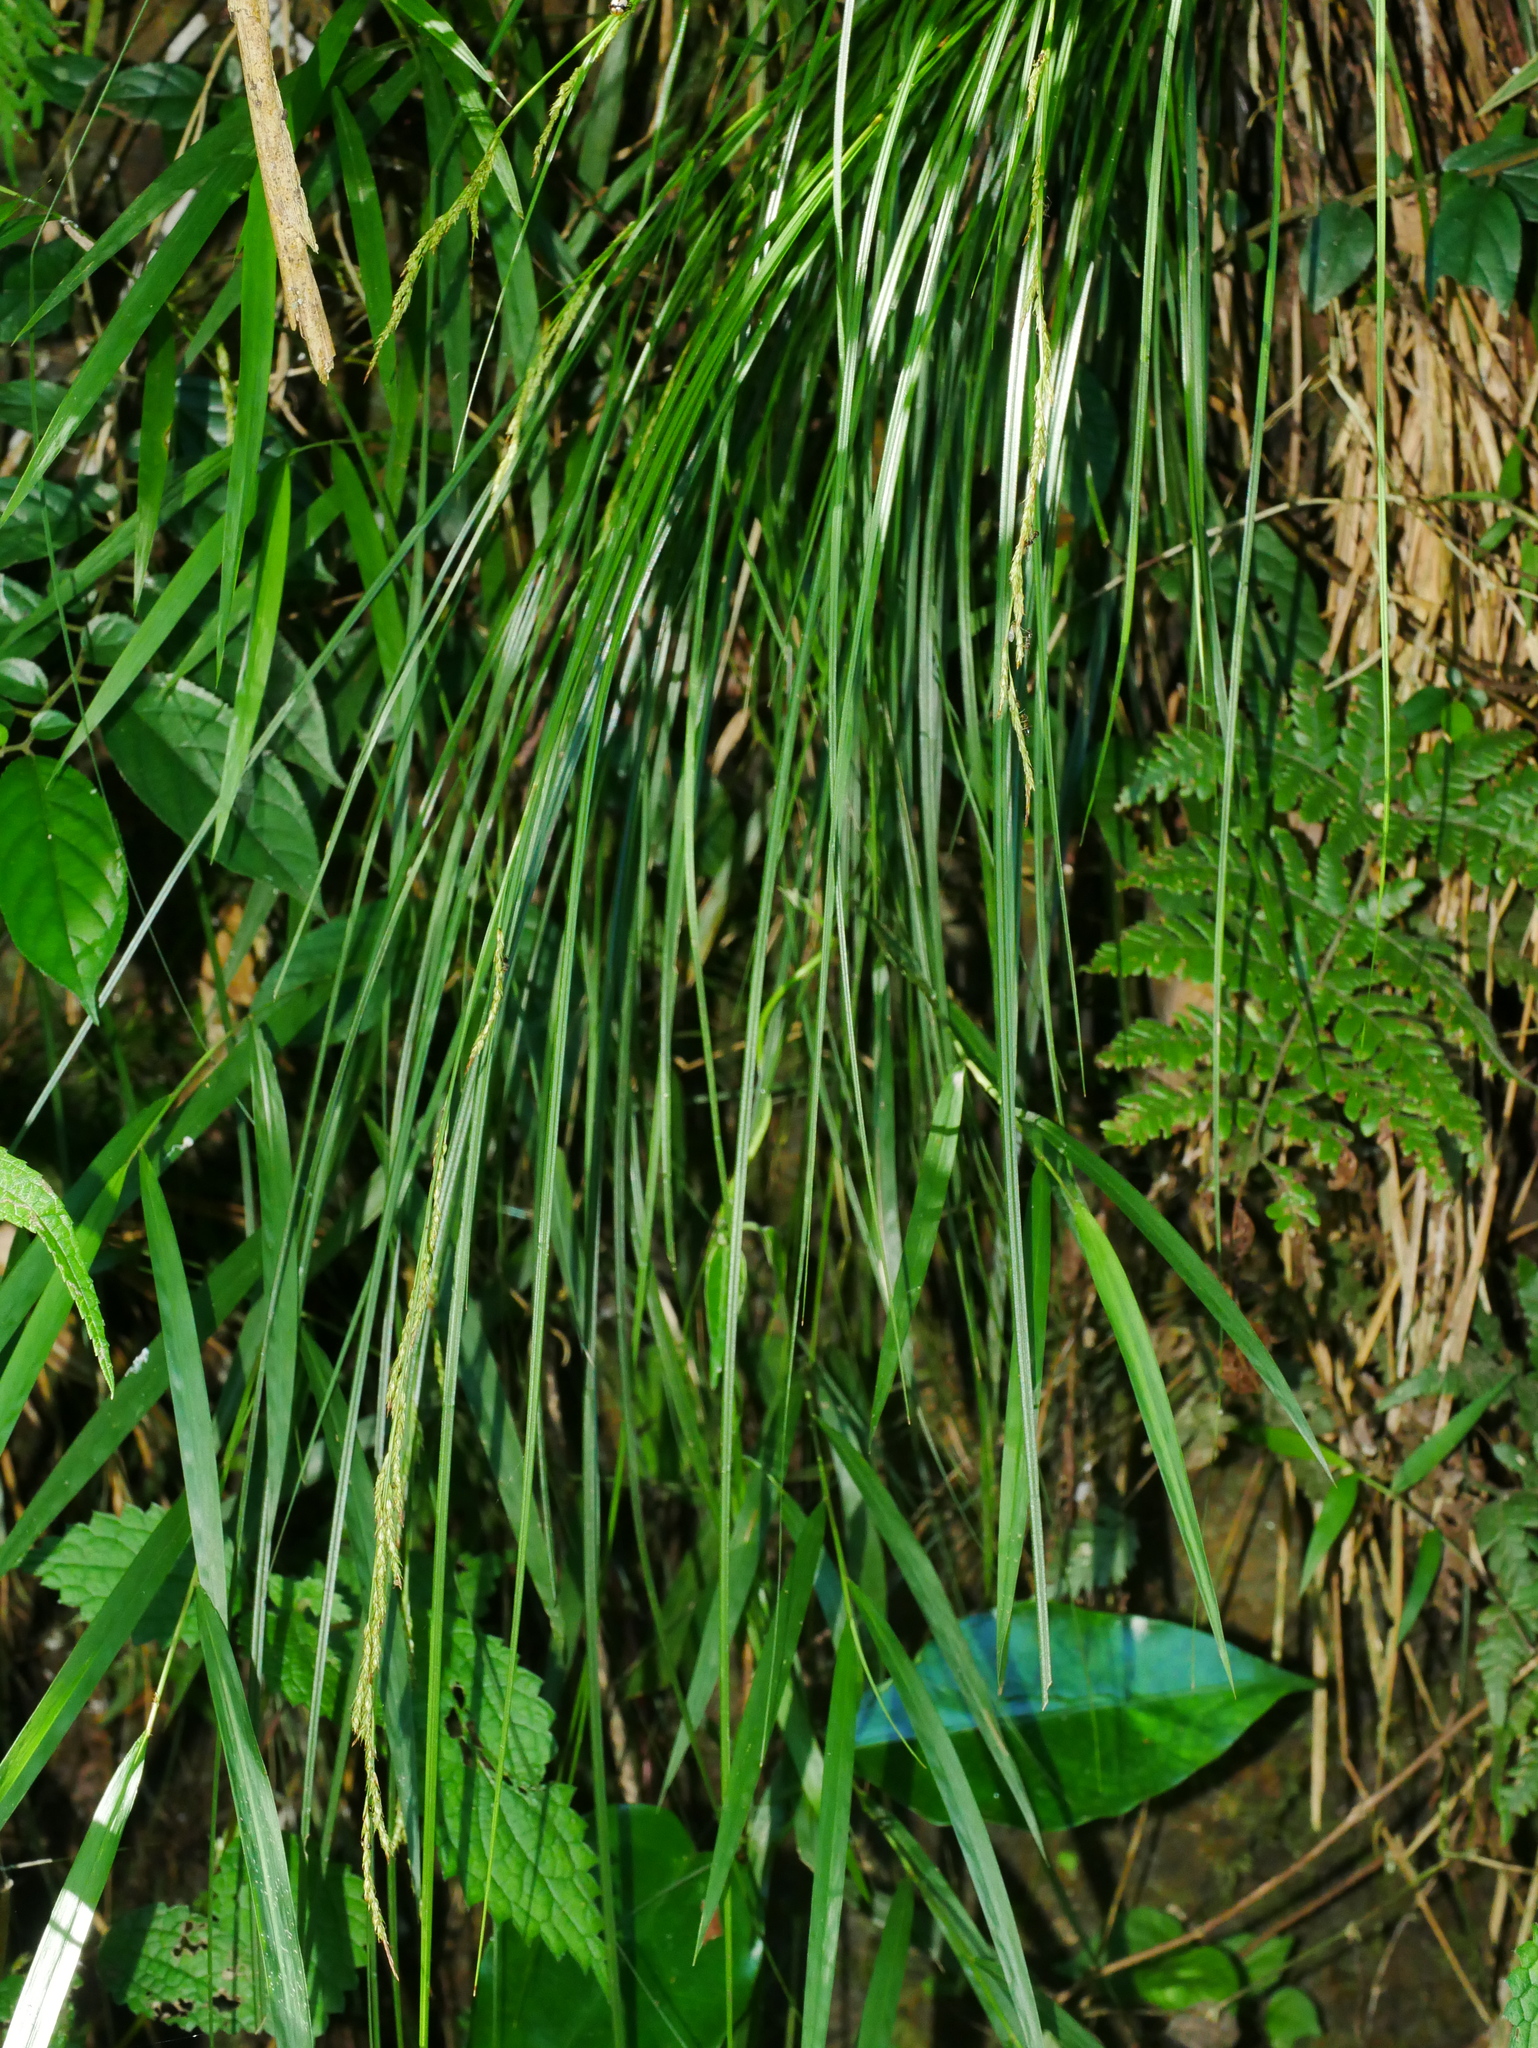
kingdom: Plantae
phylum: Tracheophyta
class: Liliopsida
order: Poales
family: Cyperaceae
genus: Carex
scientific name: Carex brunnea
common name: Greater brown sedge
